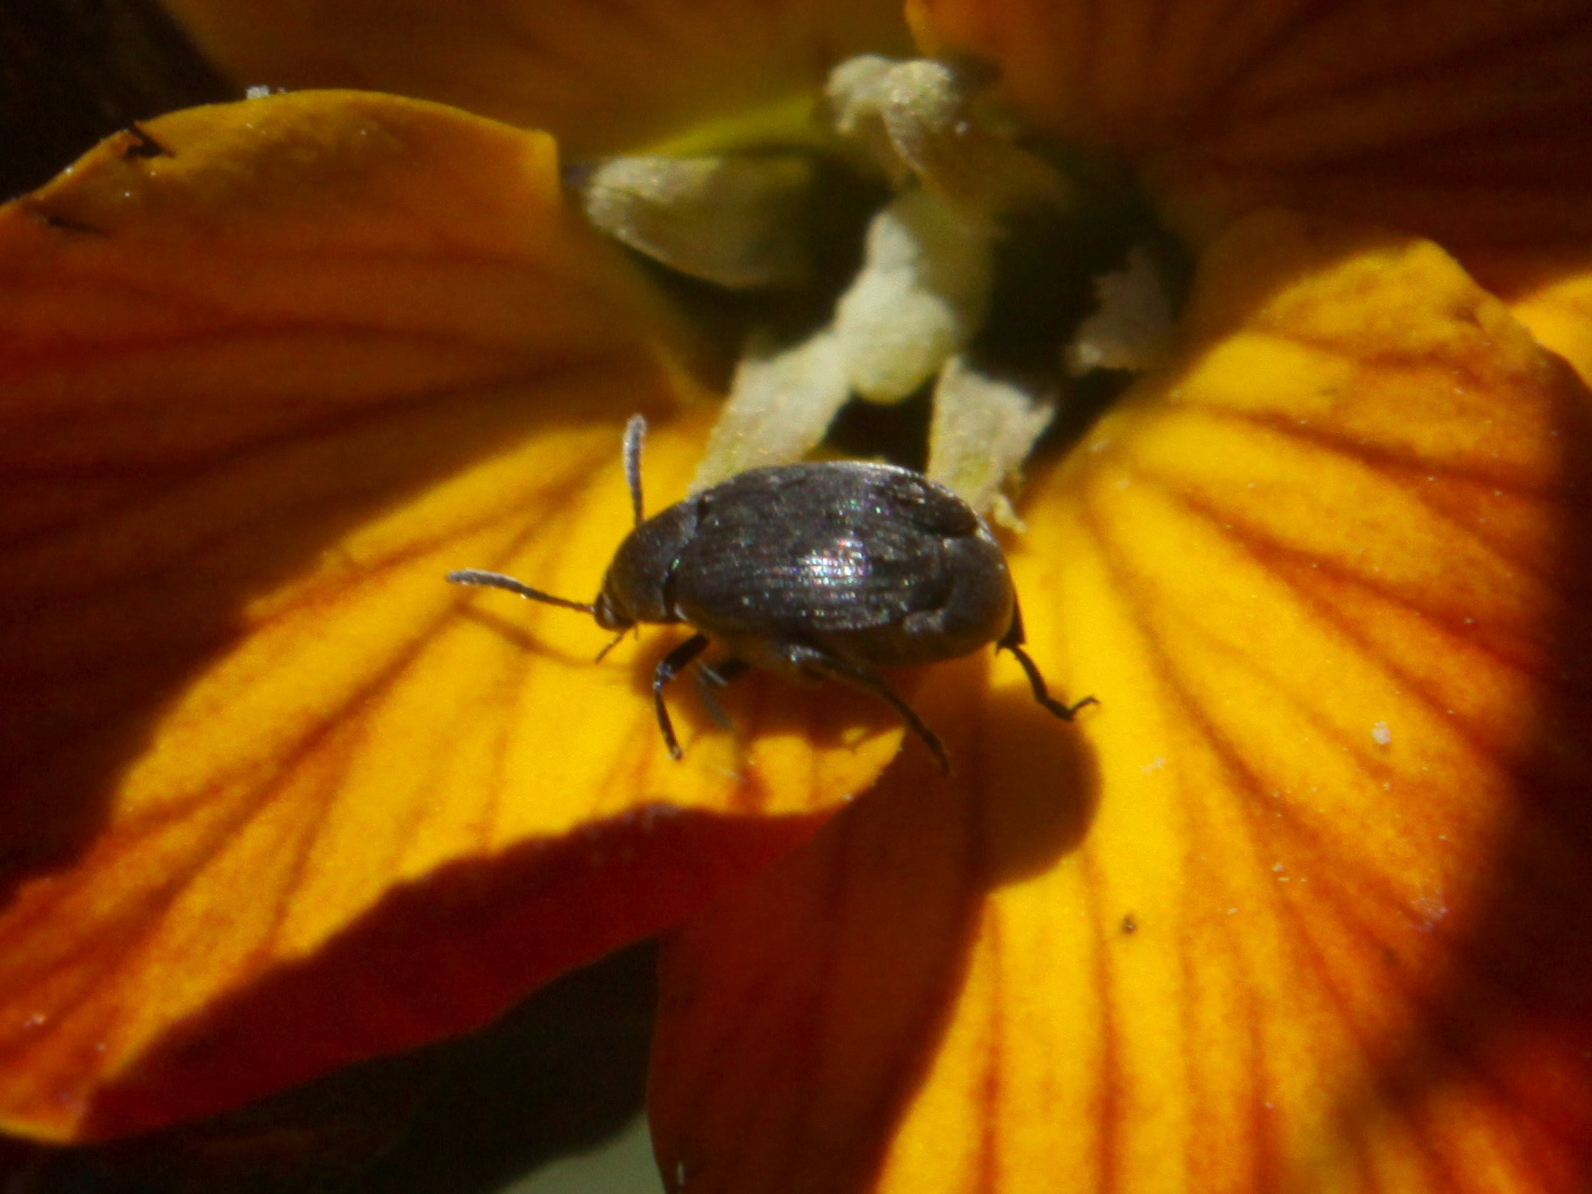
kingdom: Animalia
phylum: Arthropoda
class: Insecta
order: Coleoptera
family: Chrysomelidae
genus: Bruchidius
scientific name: Bruchidius villosus
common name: Scotch broom bruchid
